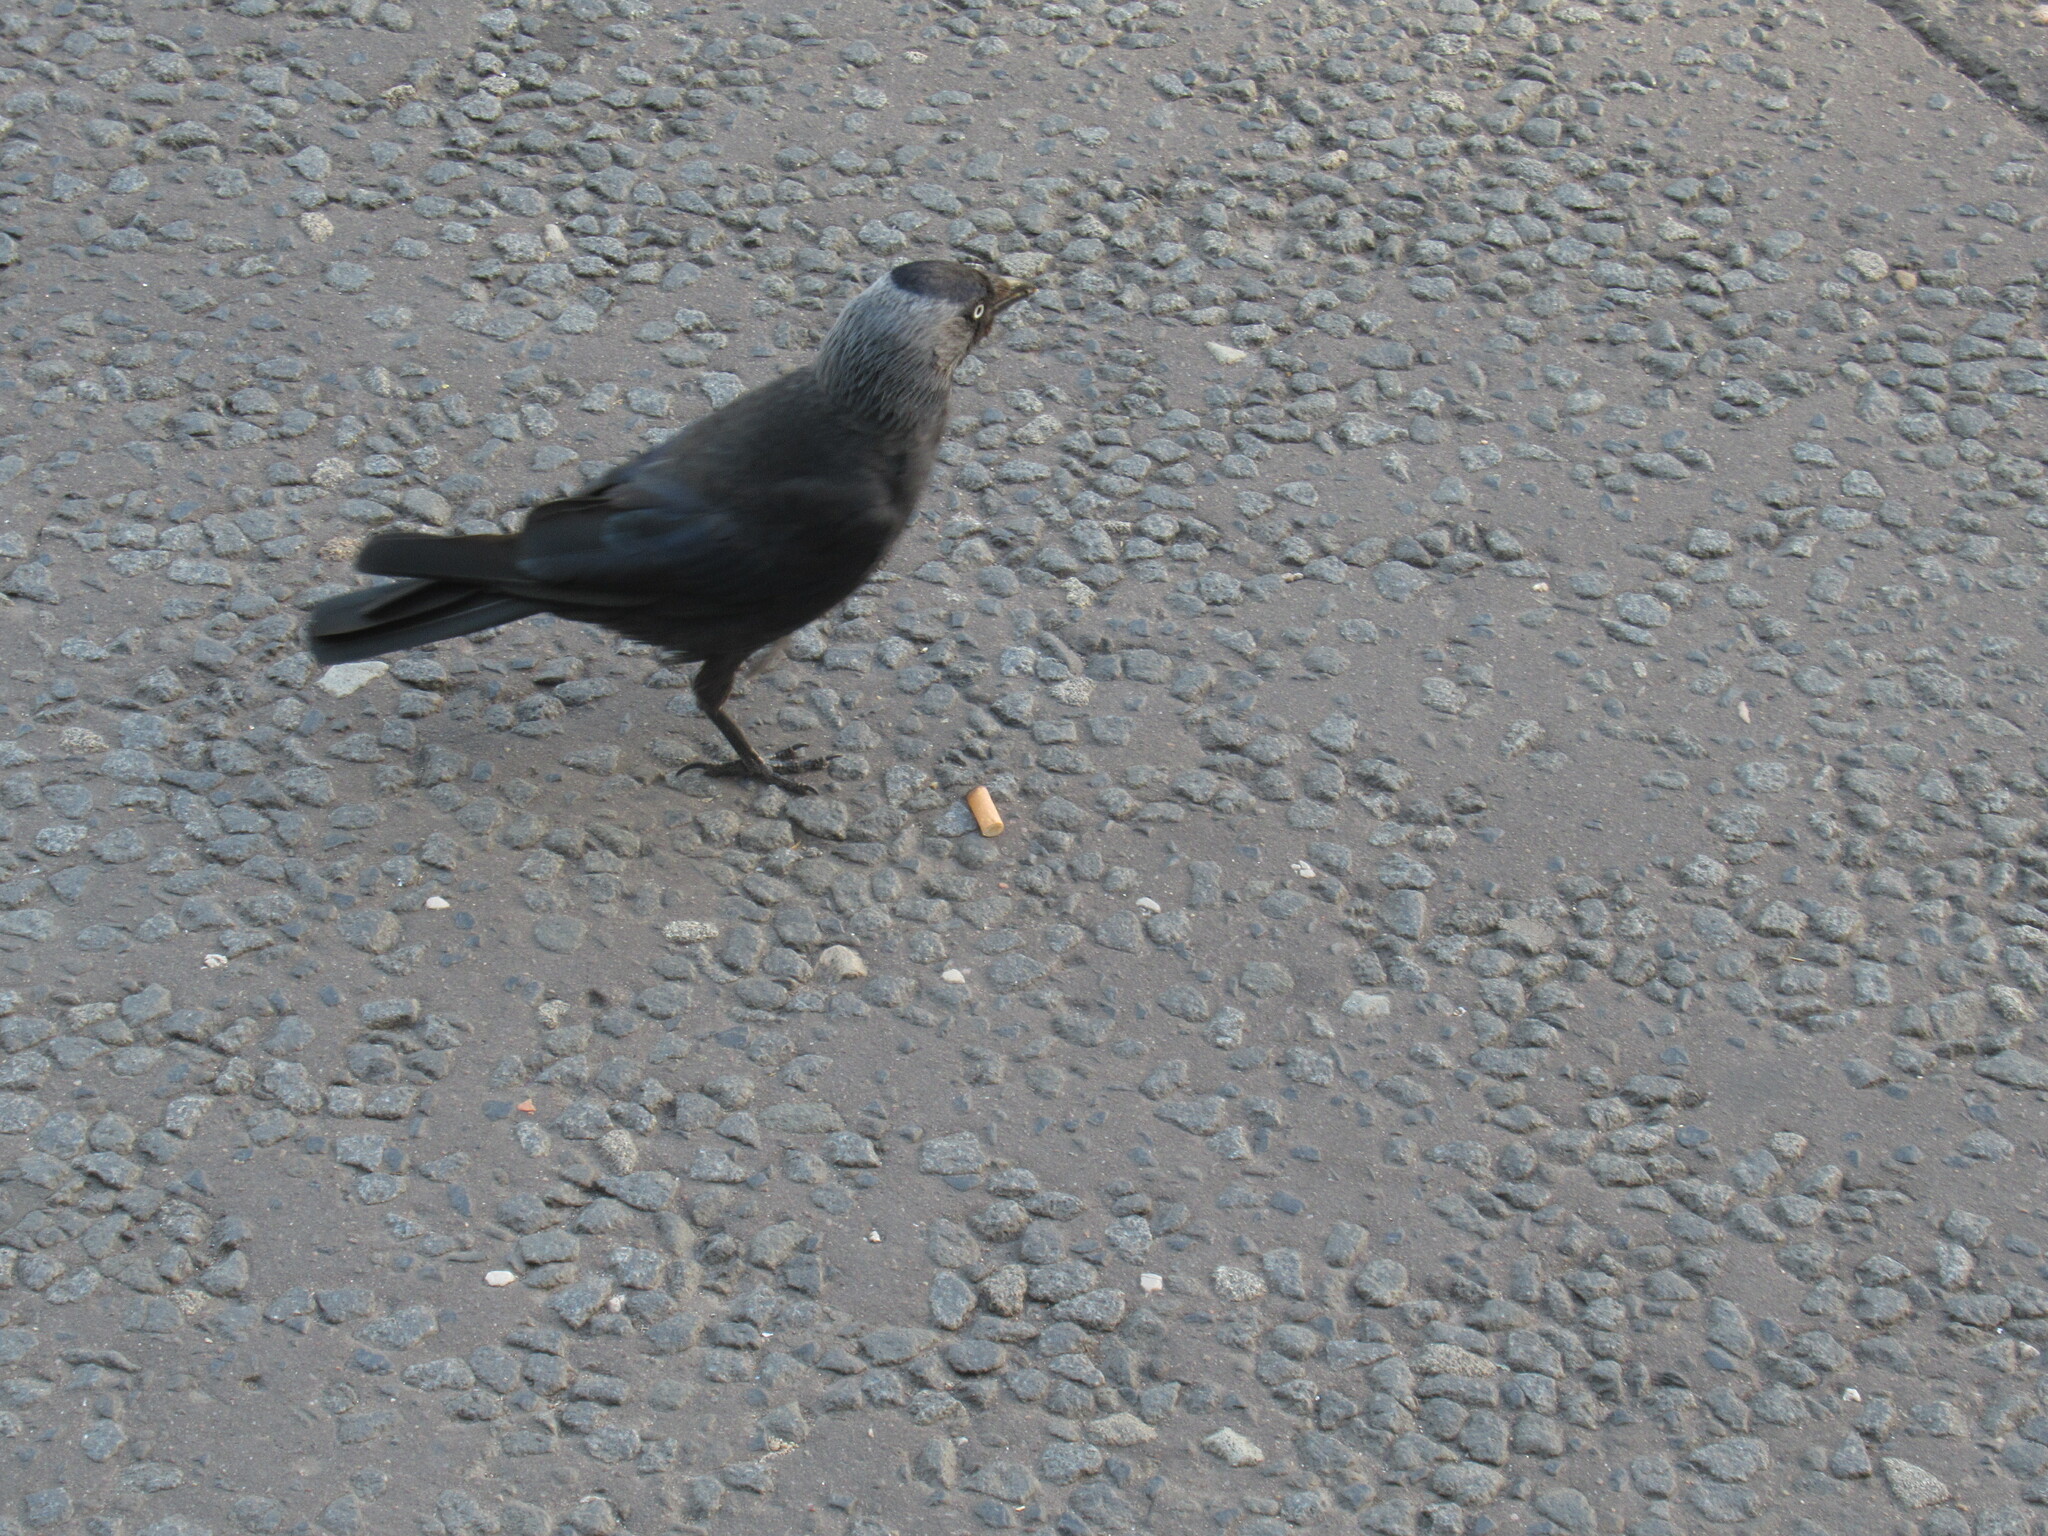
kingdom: Animalia
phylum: Chordata
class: Aves
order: Passeriformes
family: Corvidae
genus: Coloeus
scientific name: Coloeus monedula
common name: Western jackdaw
